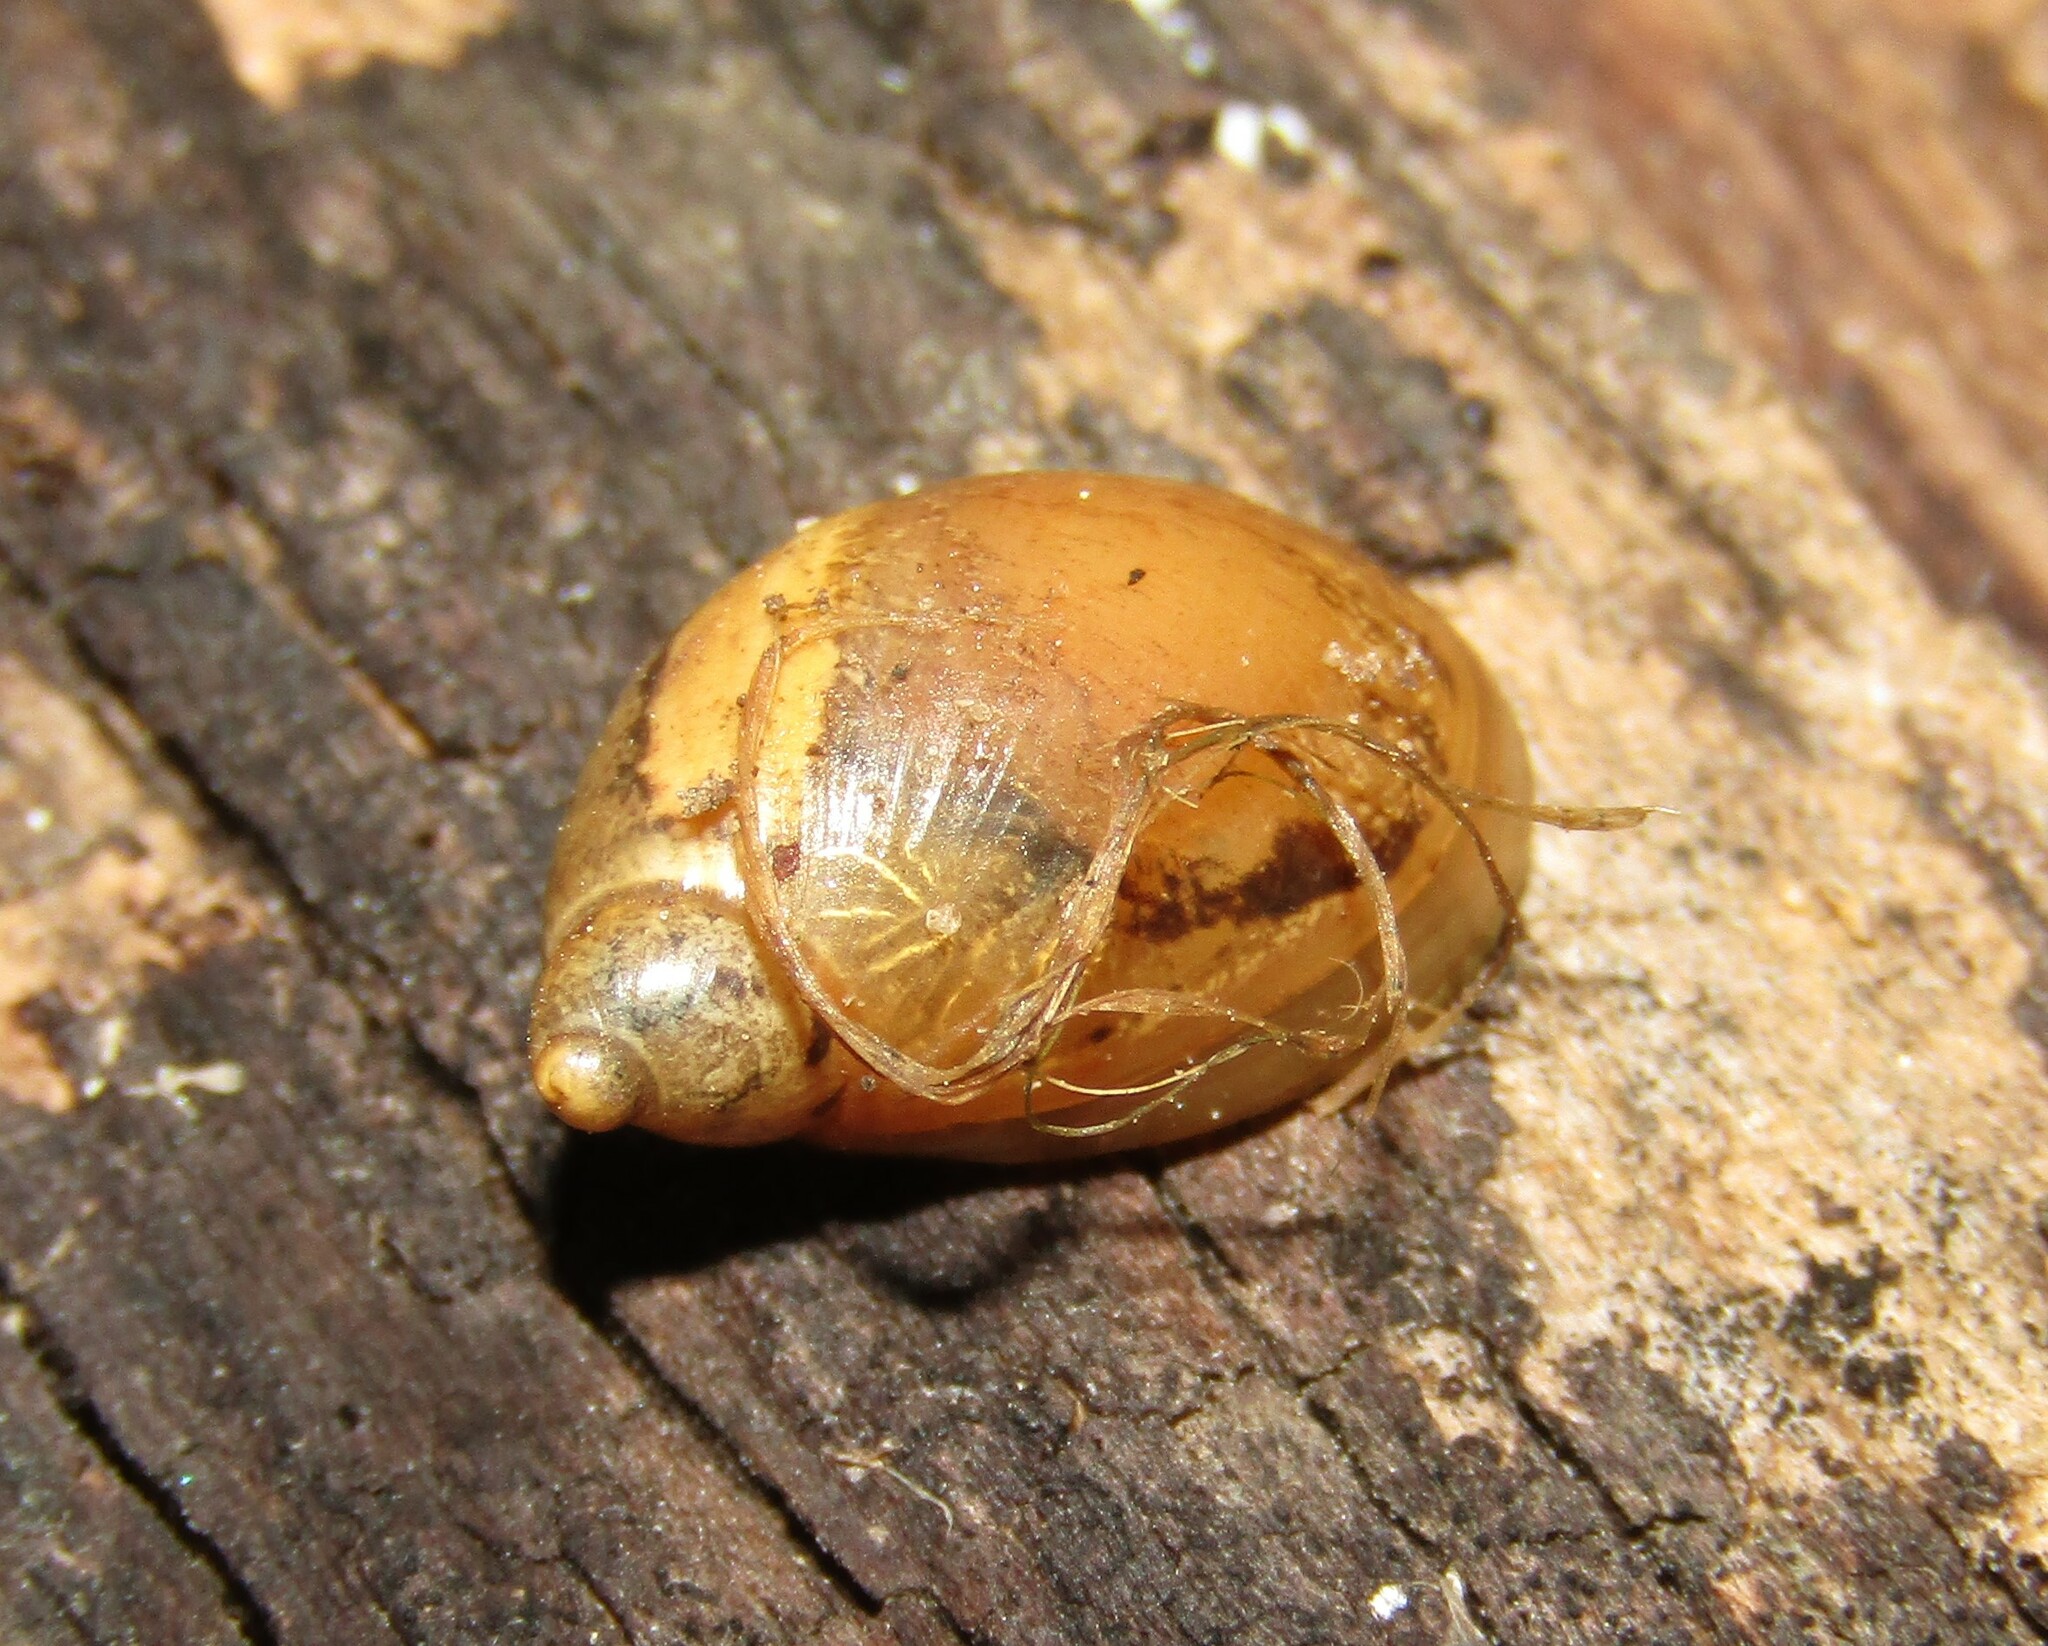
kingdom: Animalia
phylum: Mollusca
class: Gastropoda
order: Stylommatophora
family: Succineidae
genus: Succinea
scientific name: Succinea putris
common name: European ambersnail
